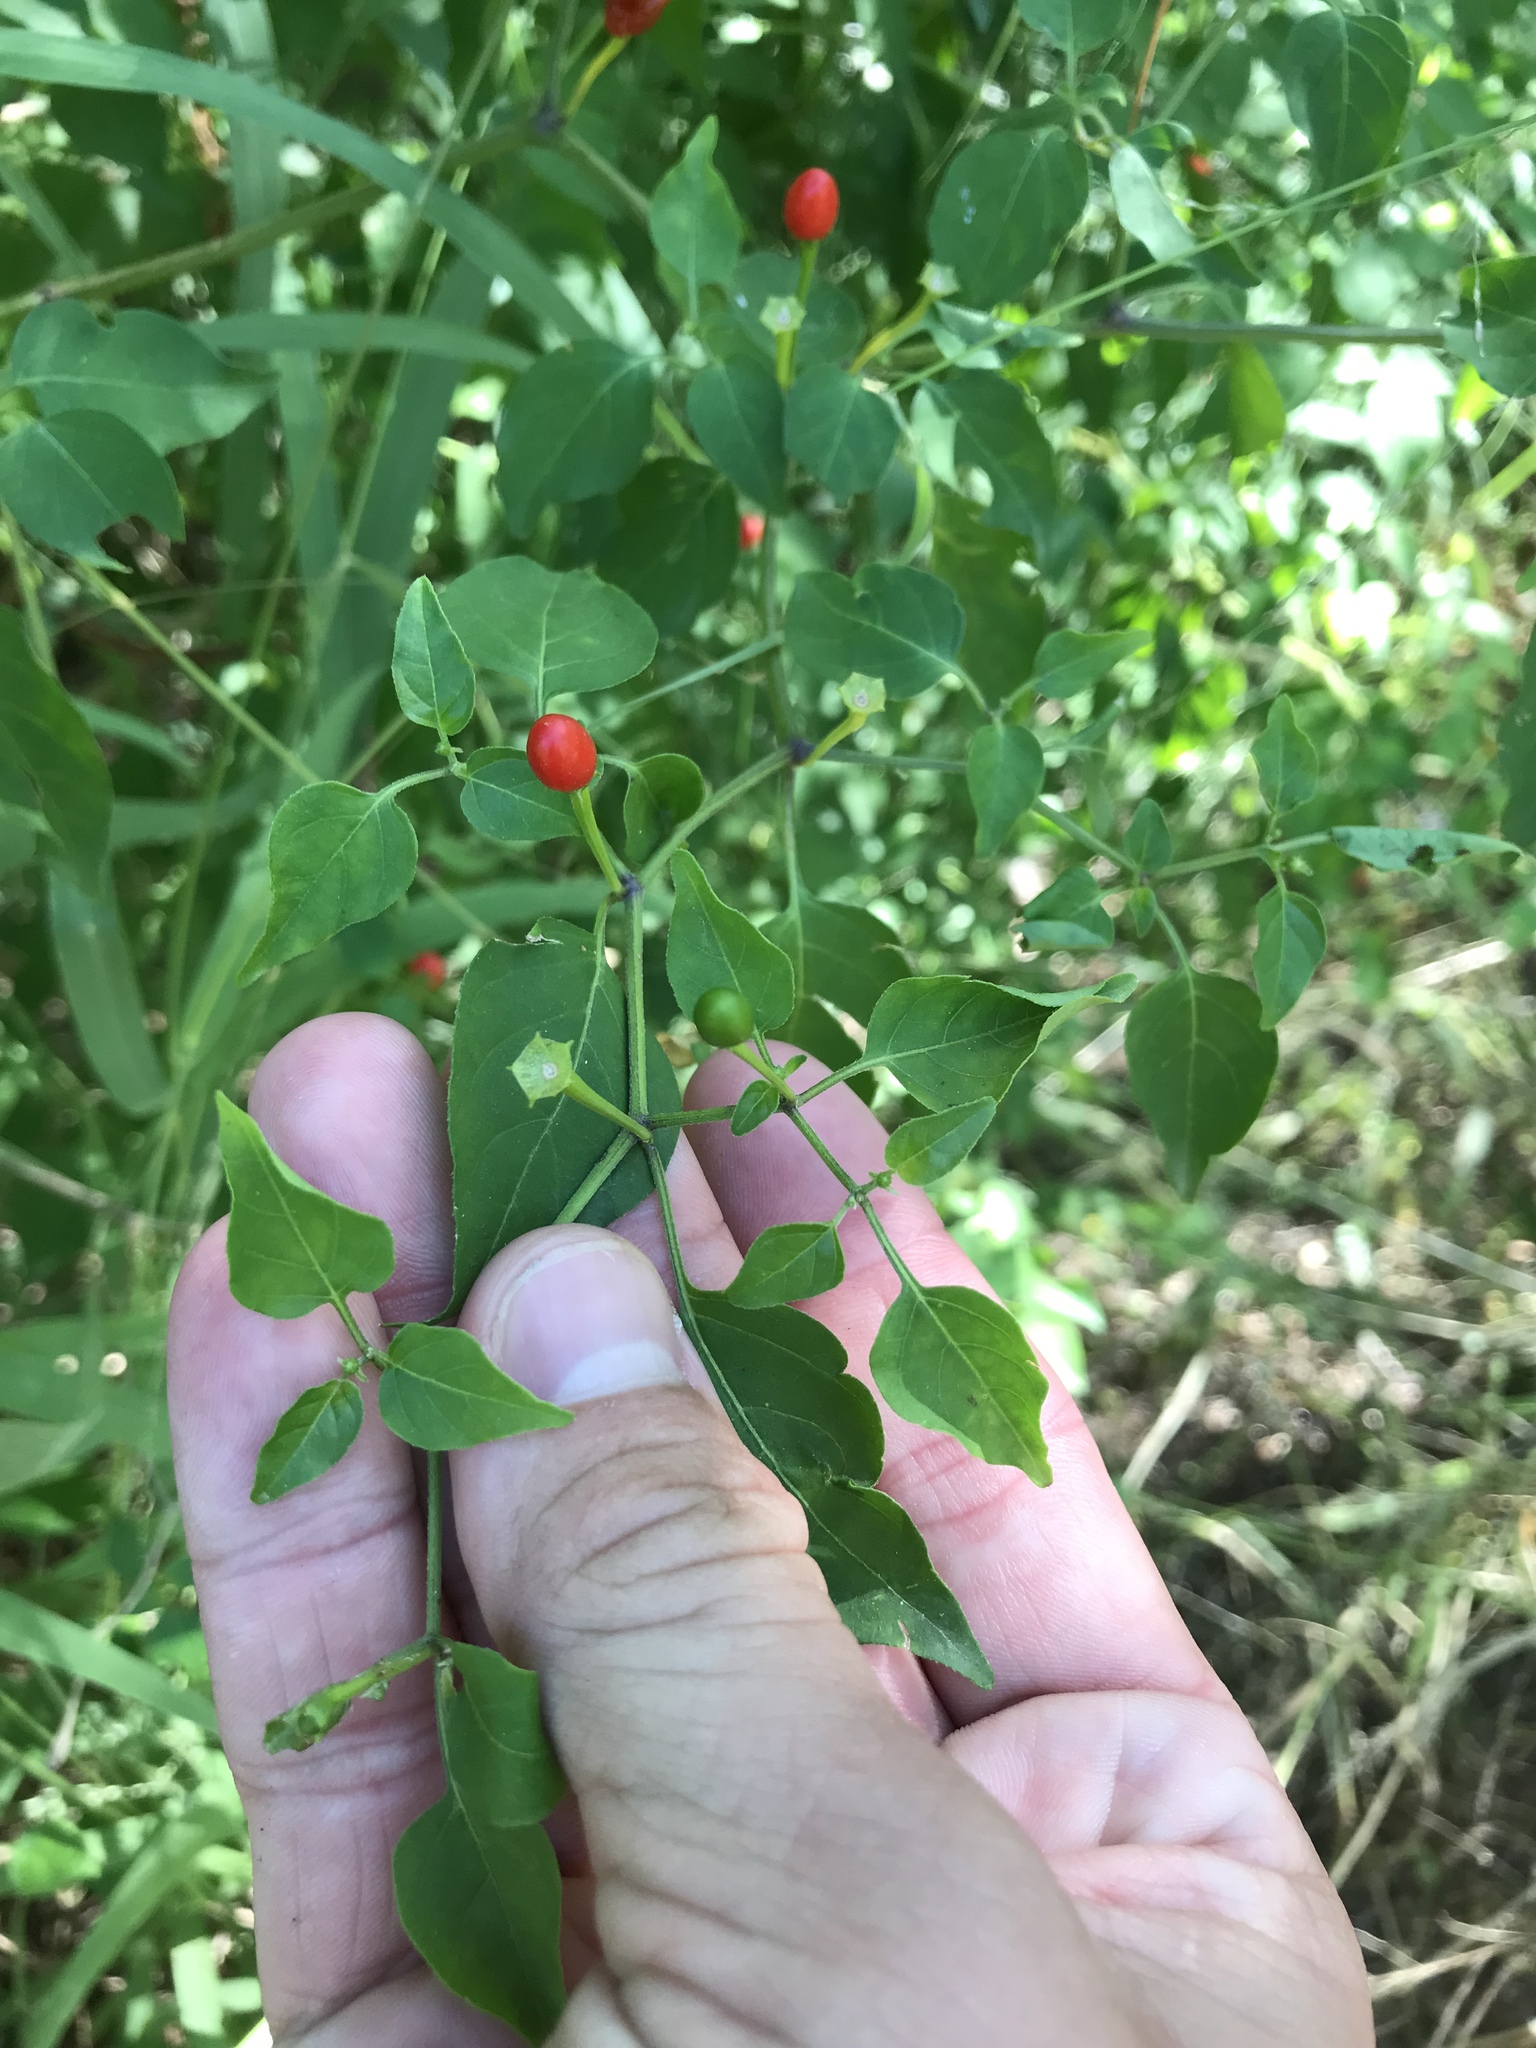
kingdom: Plantae
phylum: Tracheophyta
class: Magnoliopsida
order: Solanales
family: Solanaceae
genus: Capsicum
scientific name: Capsicum annuum
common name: Sweet pepper
